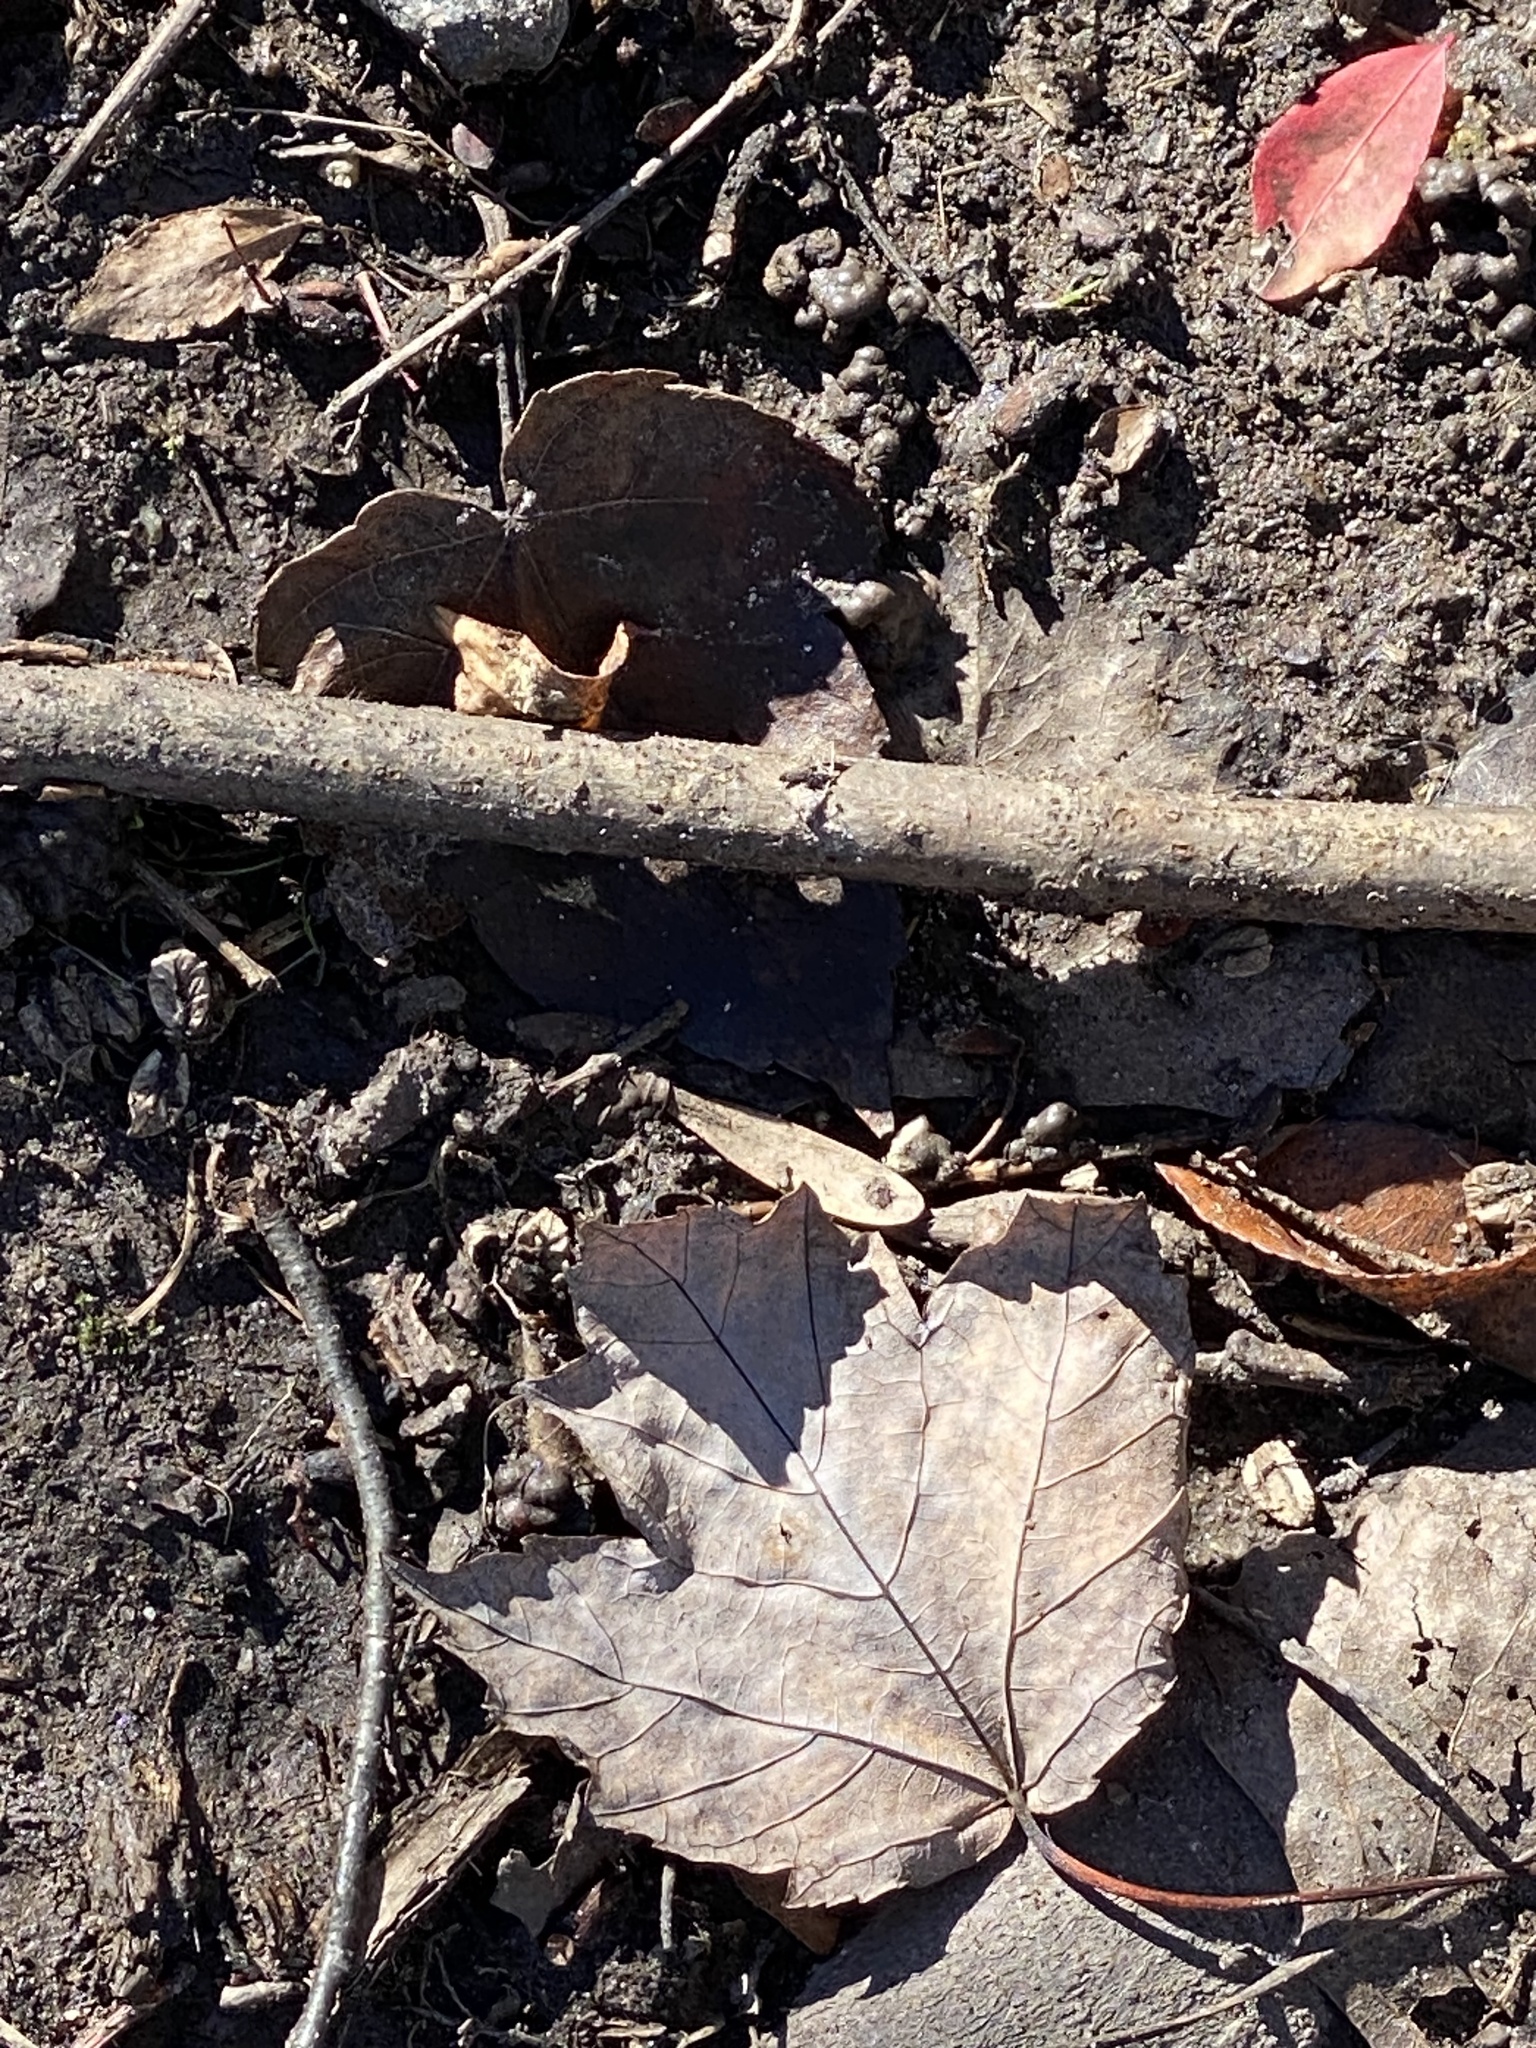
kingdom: Plantae
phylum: Tracheophyta
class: Magnoliopsida
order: Sapindales
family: Sapindaceae
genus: Acer
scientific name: Acer rubrum
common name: Red maple
